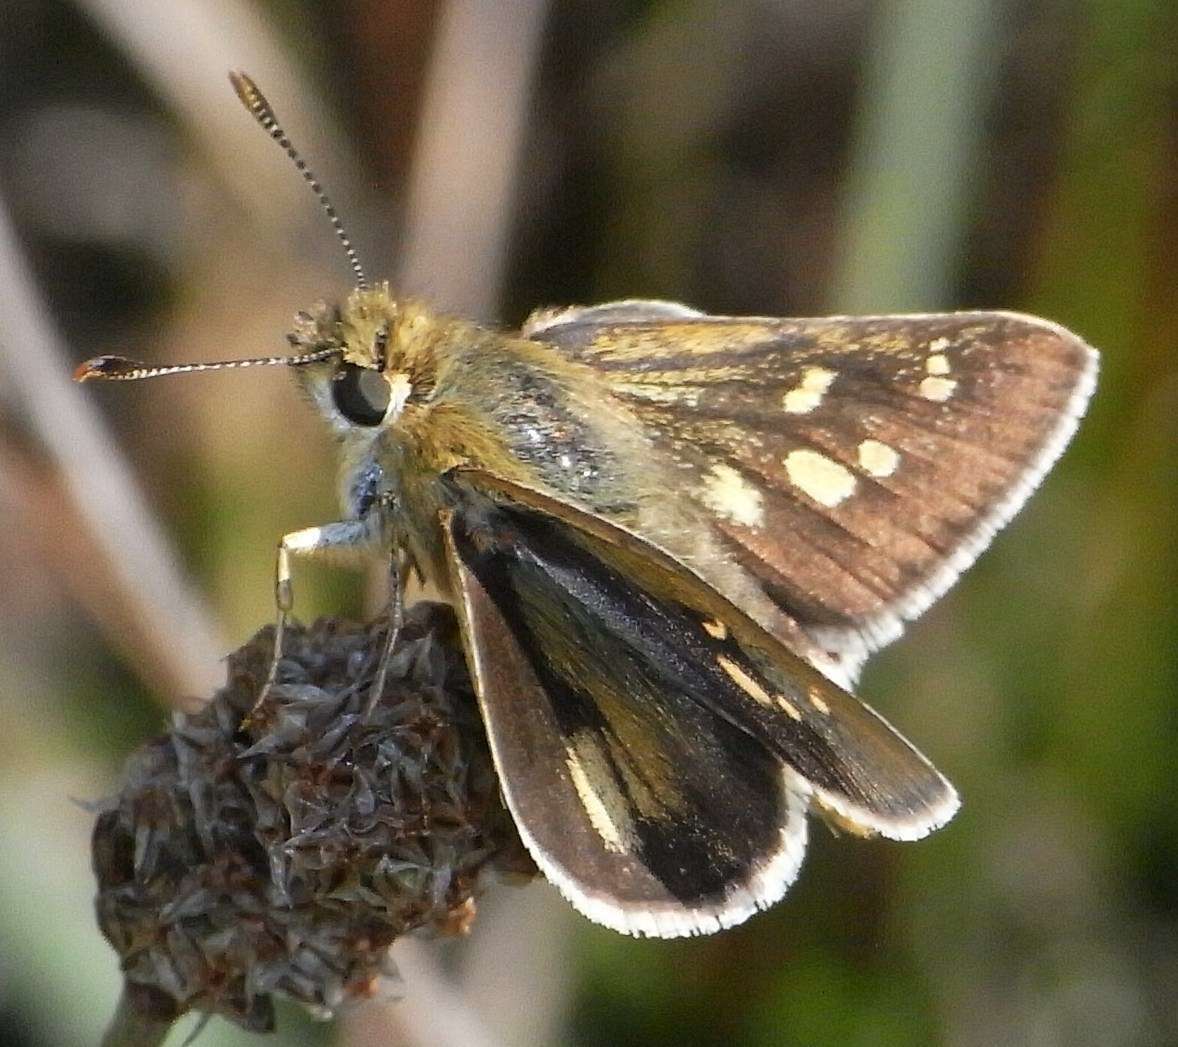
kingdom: Animalia
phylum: Arthropoda
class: Insecta
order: Lepidoptera
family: Hesperiidae
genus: Trapezites
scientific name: Trapezites lutea
